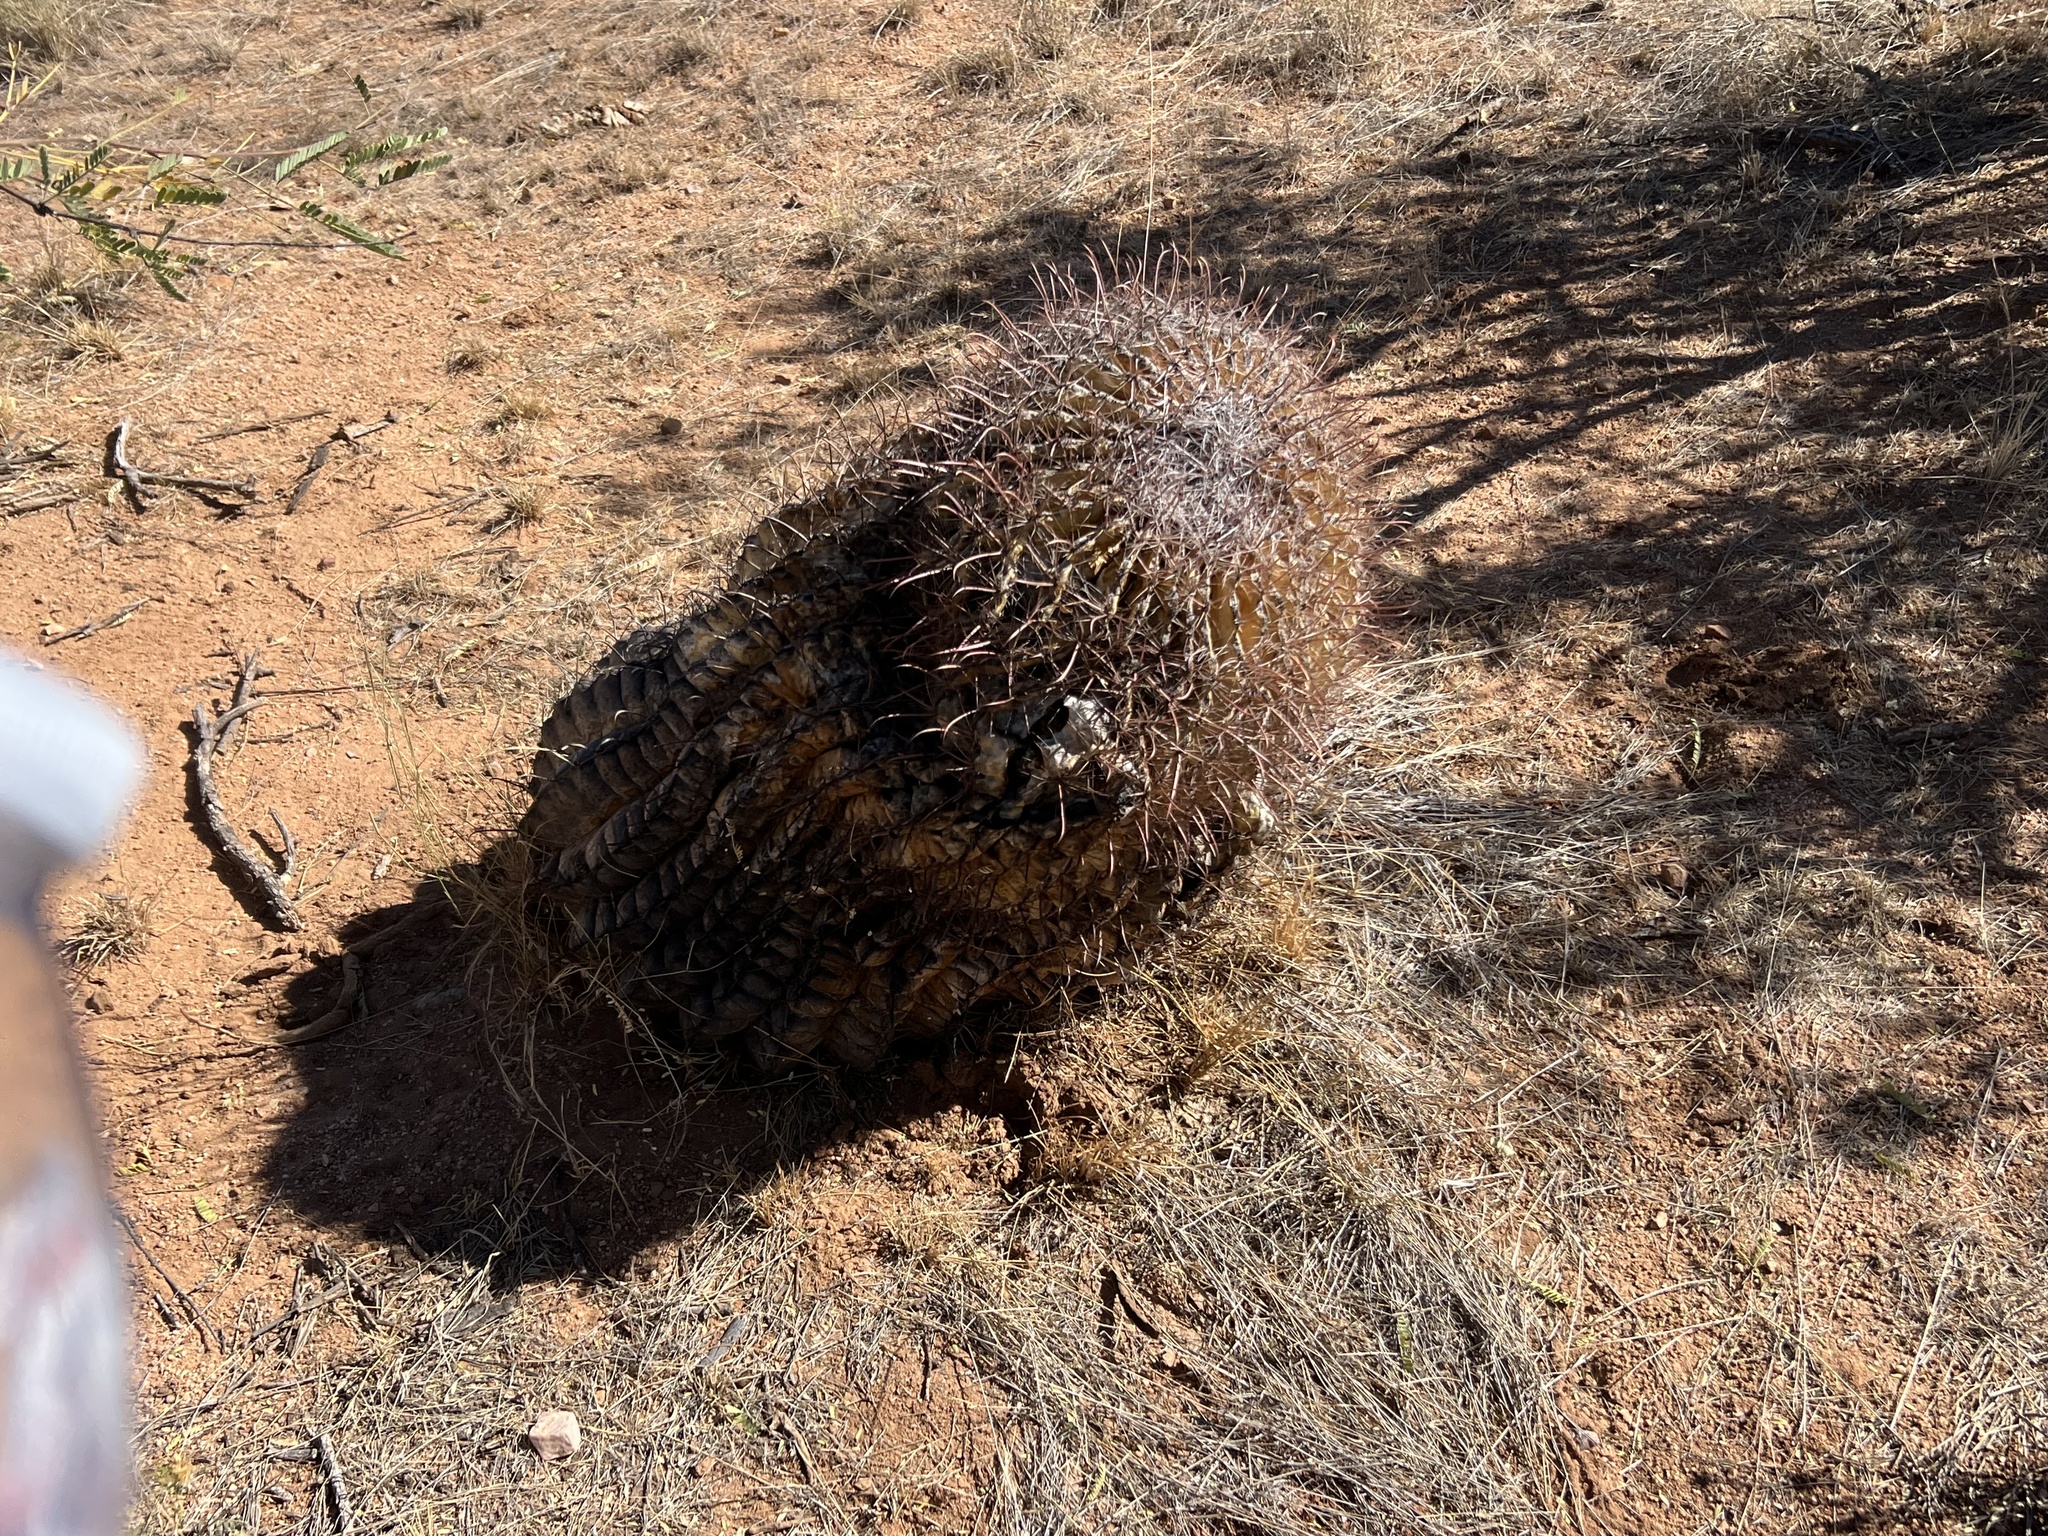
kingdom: Plantae
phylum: Tracheophyta
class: Magnoliopsida
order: Caryophyllales
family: Cactaceae
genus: Ferocactus
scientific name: Ferocactus wislizeni
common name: Candy barrel cactus
